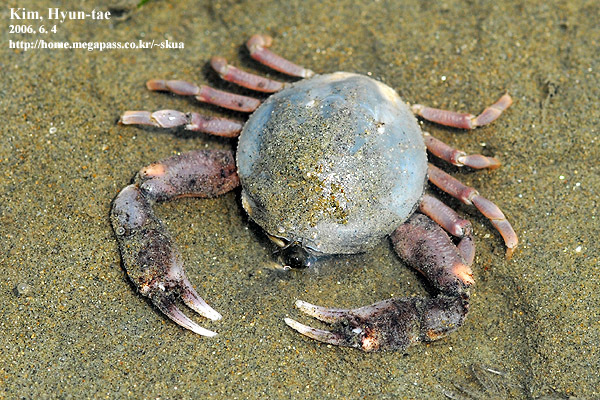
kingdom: Animalia
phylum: Arthropoda
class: Malacostraca
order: Decapoda
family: Leucosiidae
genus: Pyrhila
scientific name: Pyrhila pisum
